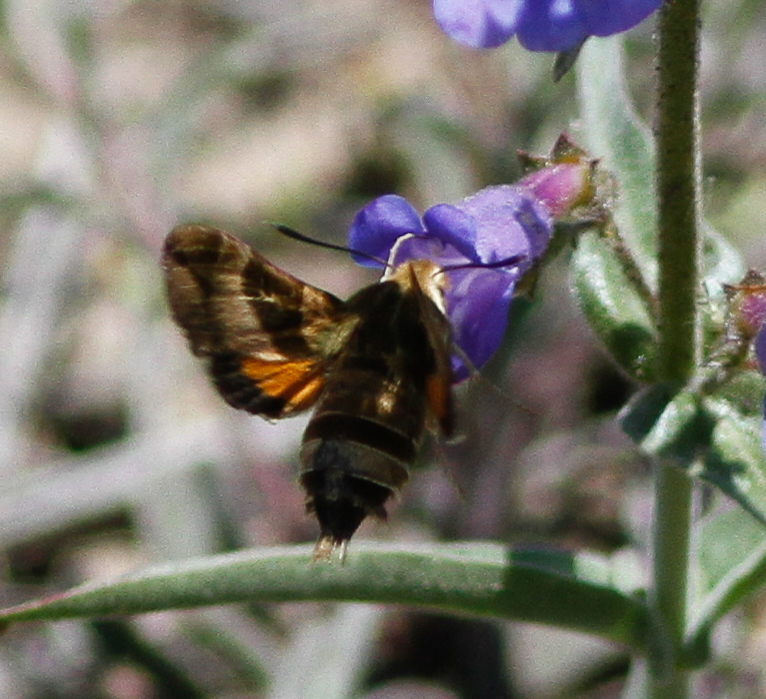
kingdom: Animalia
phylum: Arthropoda
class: Insecta
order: Lepidoptera
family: Sphingidae
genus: Proserpinus
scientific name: Proserpinus clarkiae
